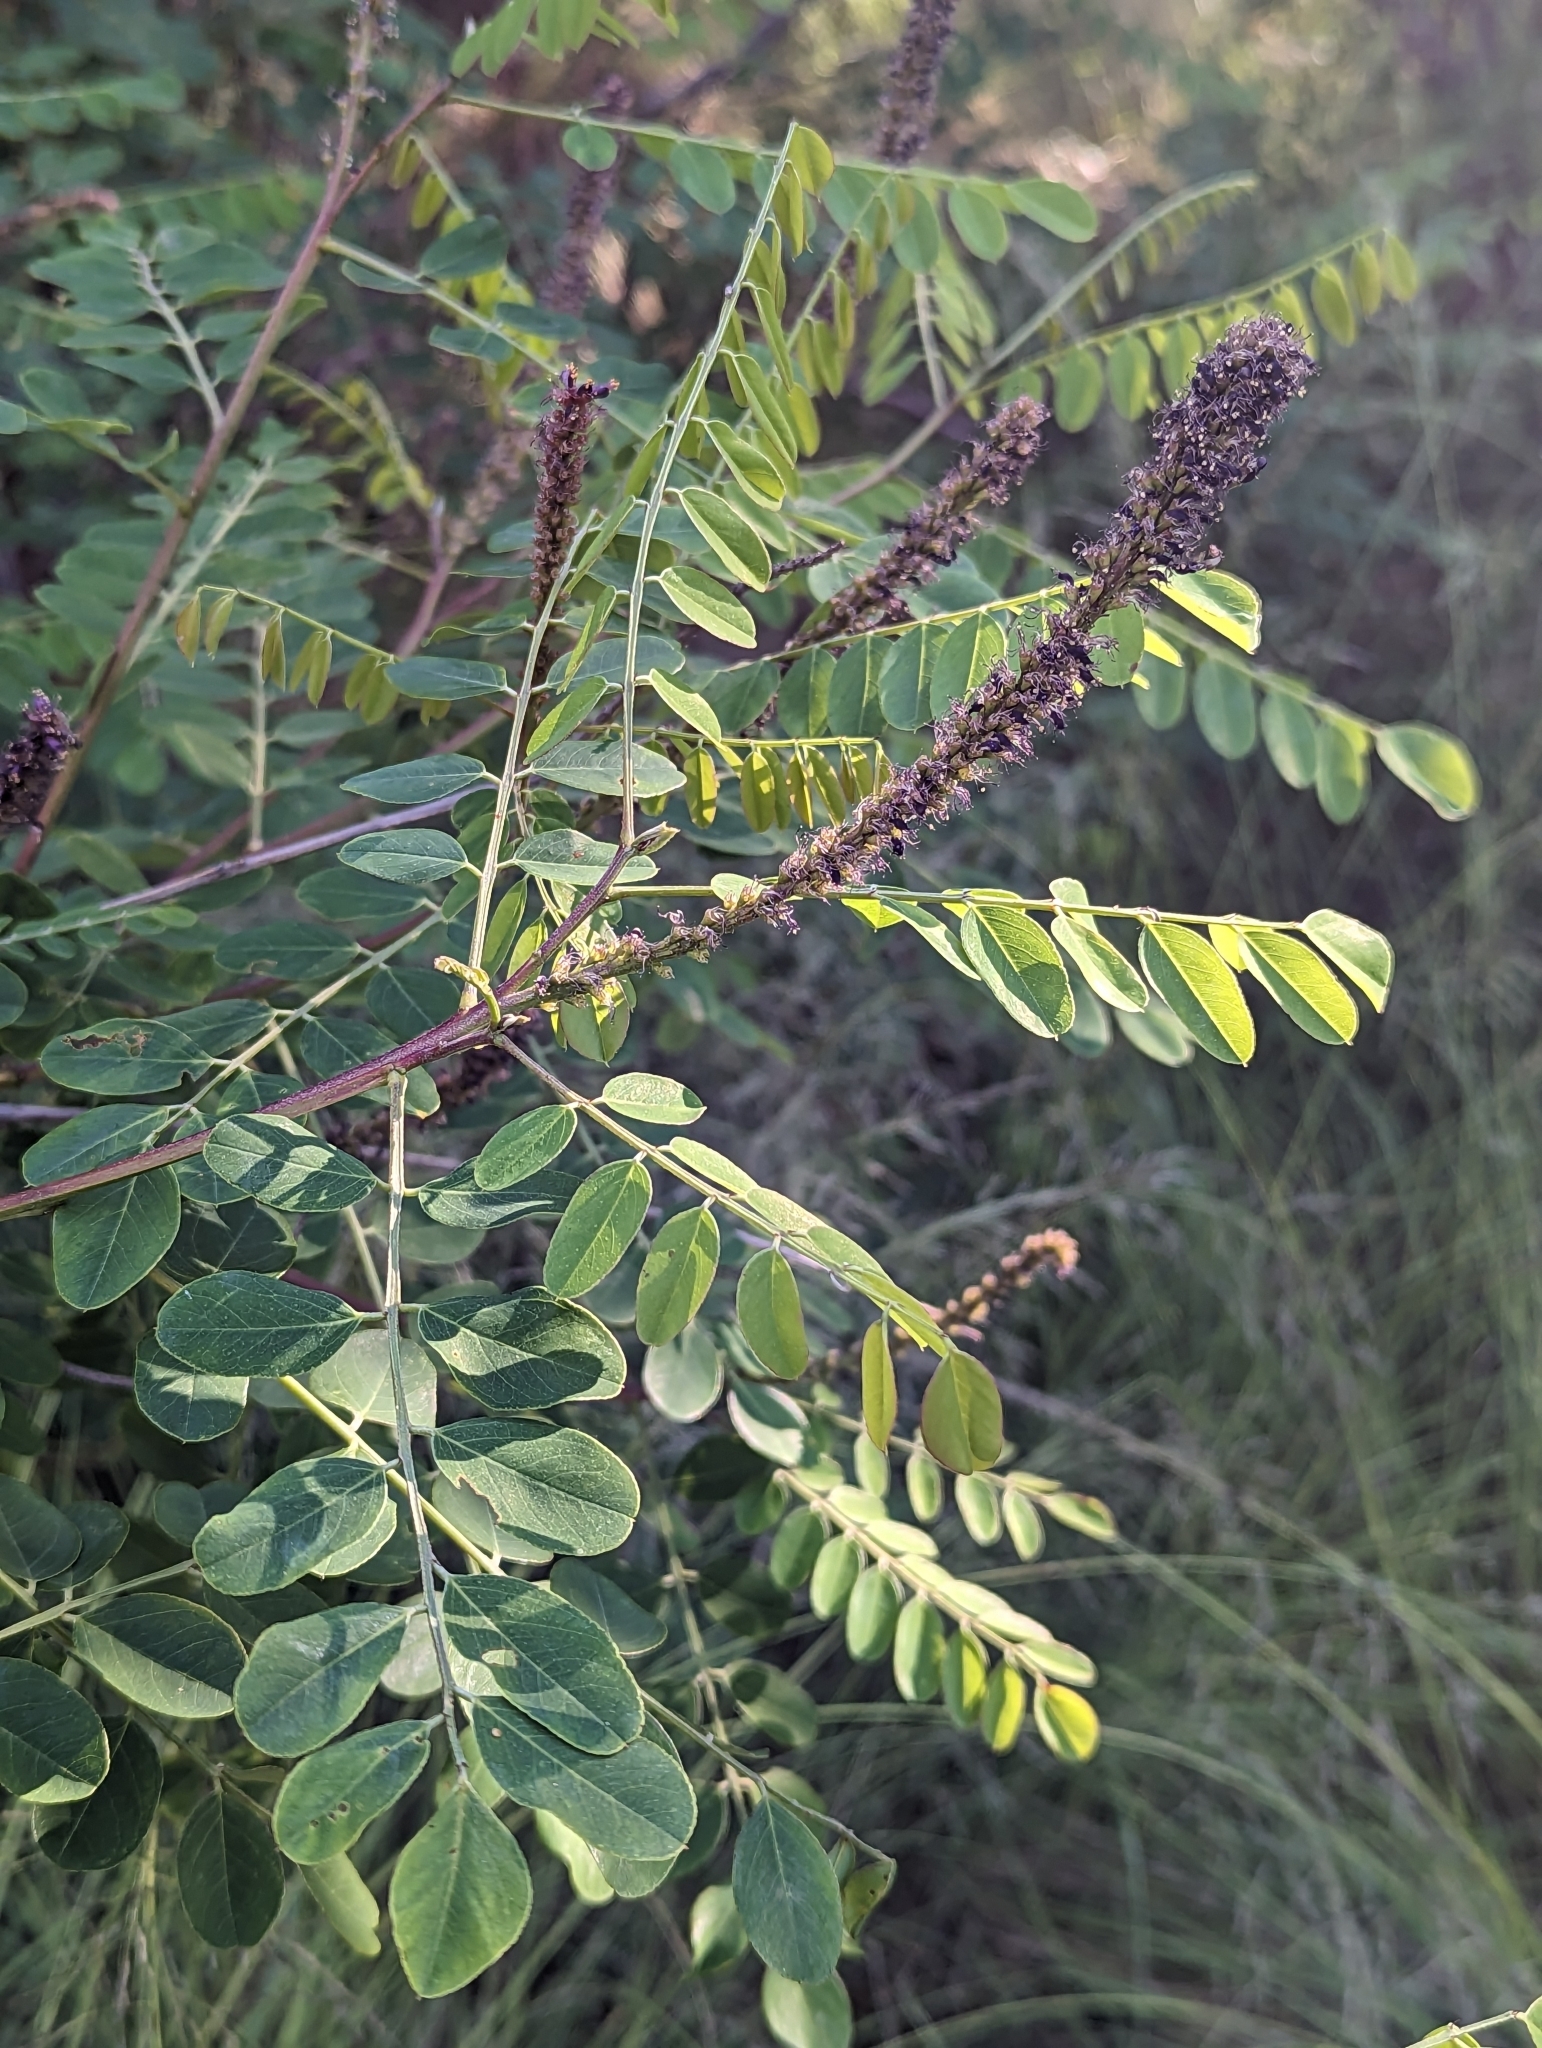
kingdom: Plantae
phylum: Tracheophyta
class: Magnoliopsida
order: Fabales
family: Fabaceae
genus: Amorpha
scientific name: Amorpha fruticosa
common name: False indigo
